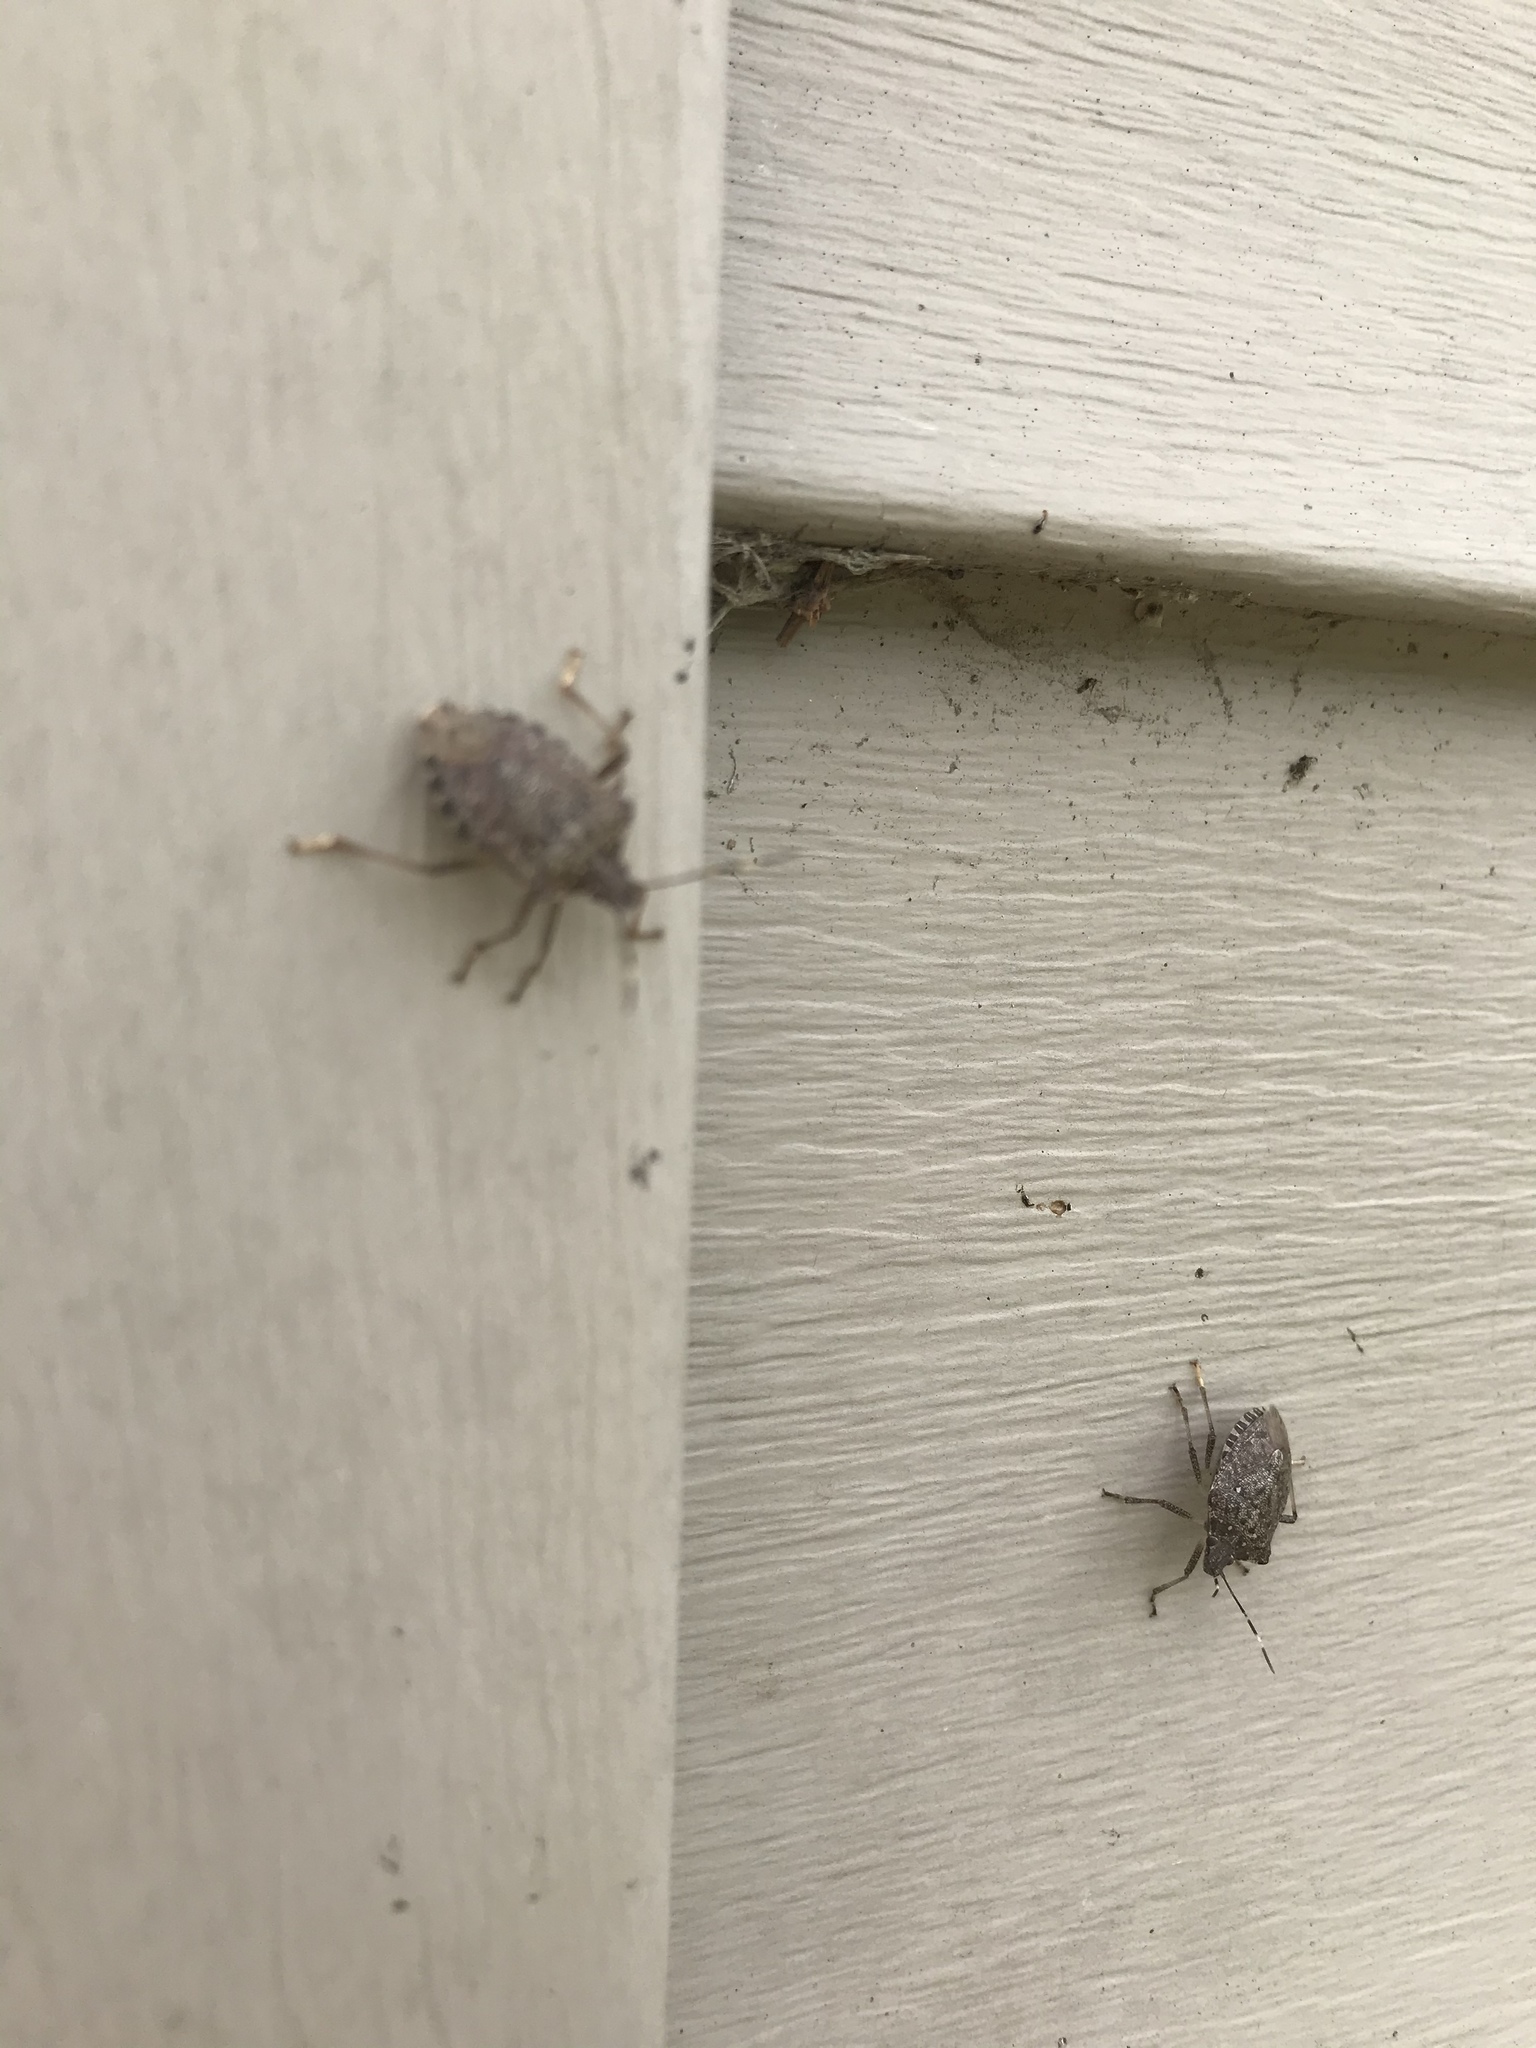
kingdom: Animalia
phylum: Arthropoda
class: Insecta
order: Hemiptera
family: Pentatomidae
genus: Halyomorpha
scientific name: Halyomorpha halys
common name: Brown marmorated stink bug
